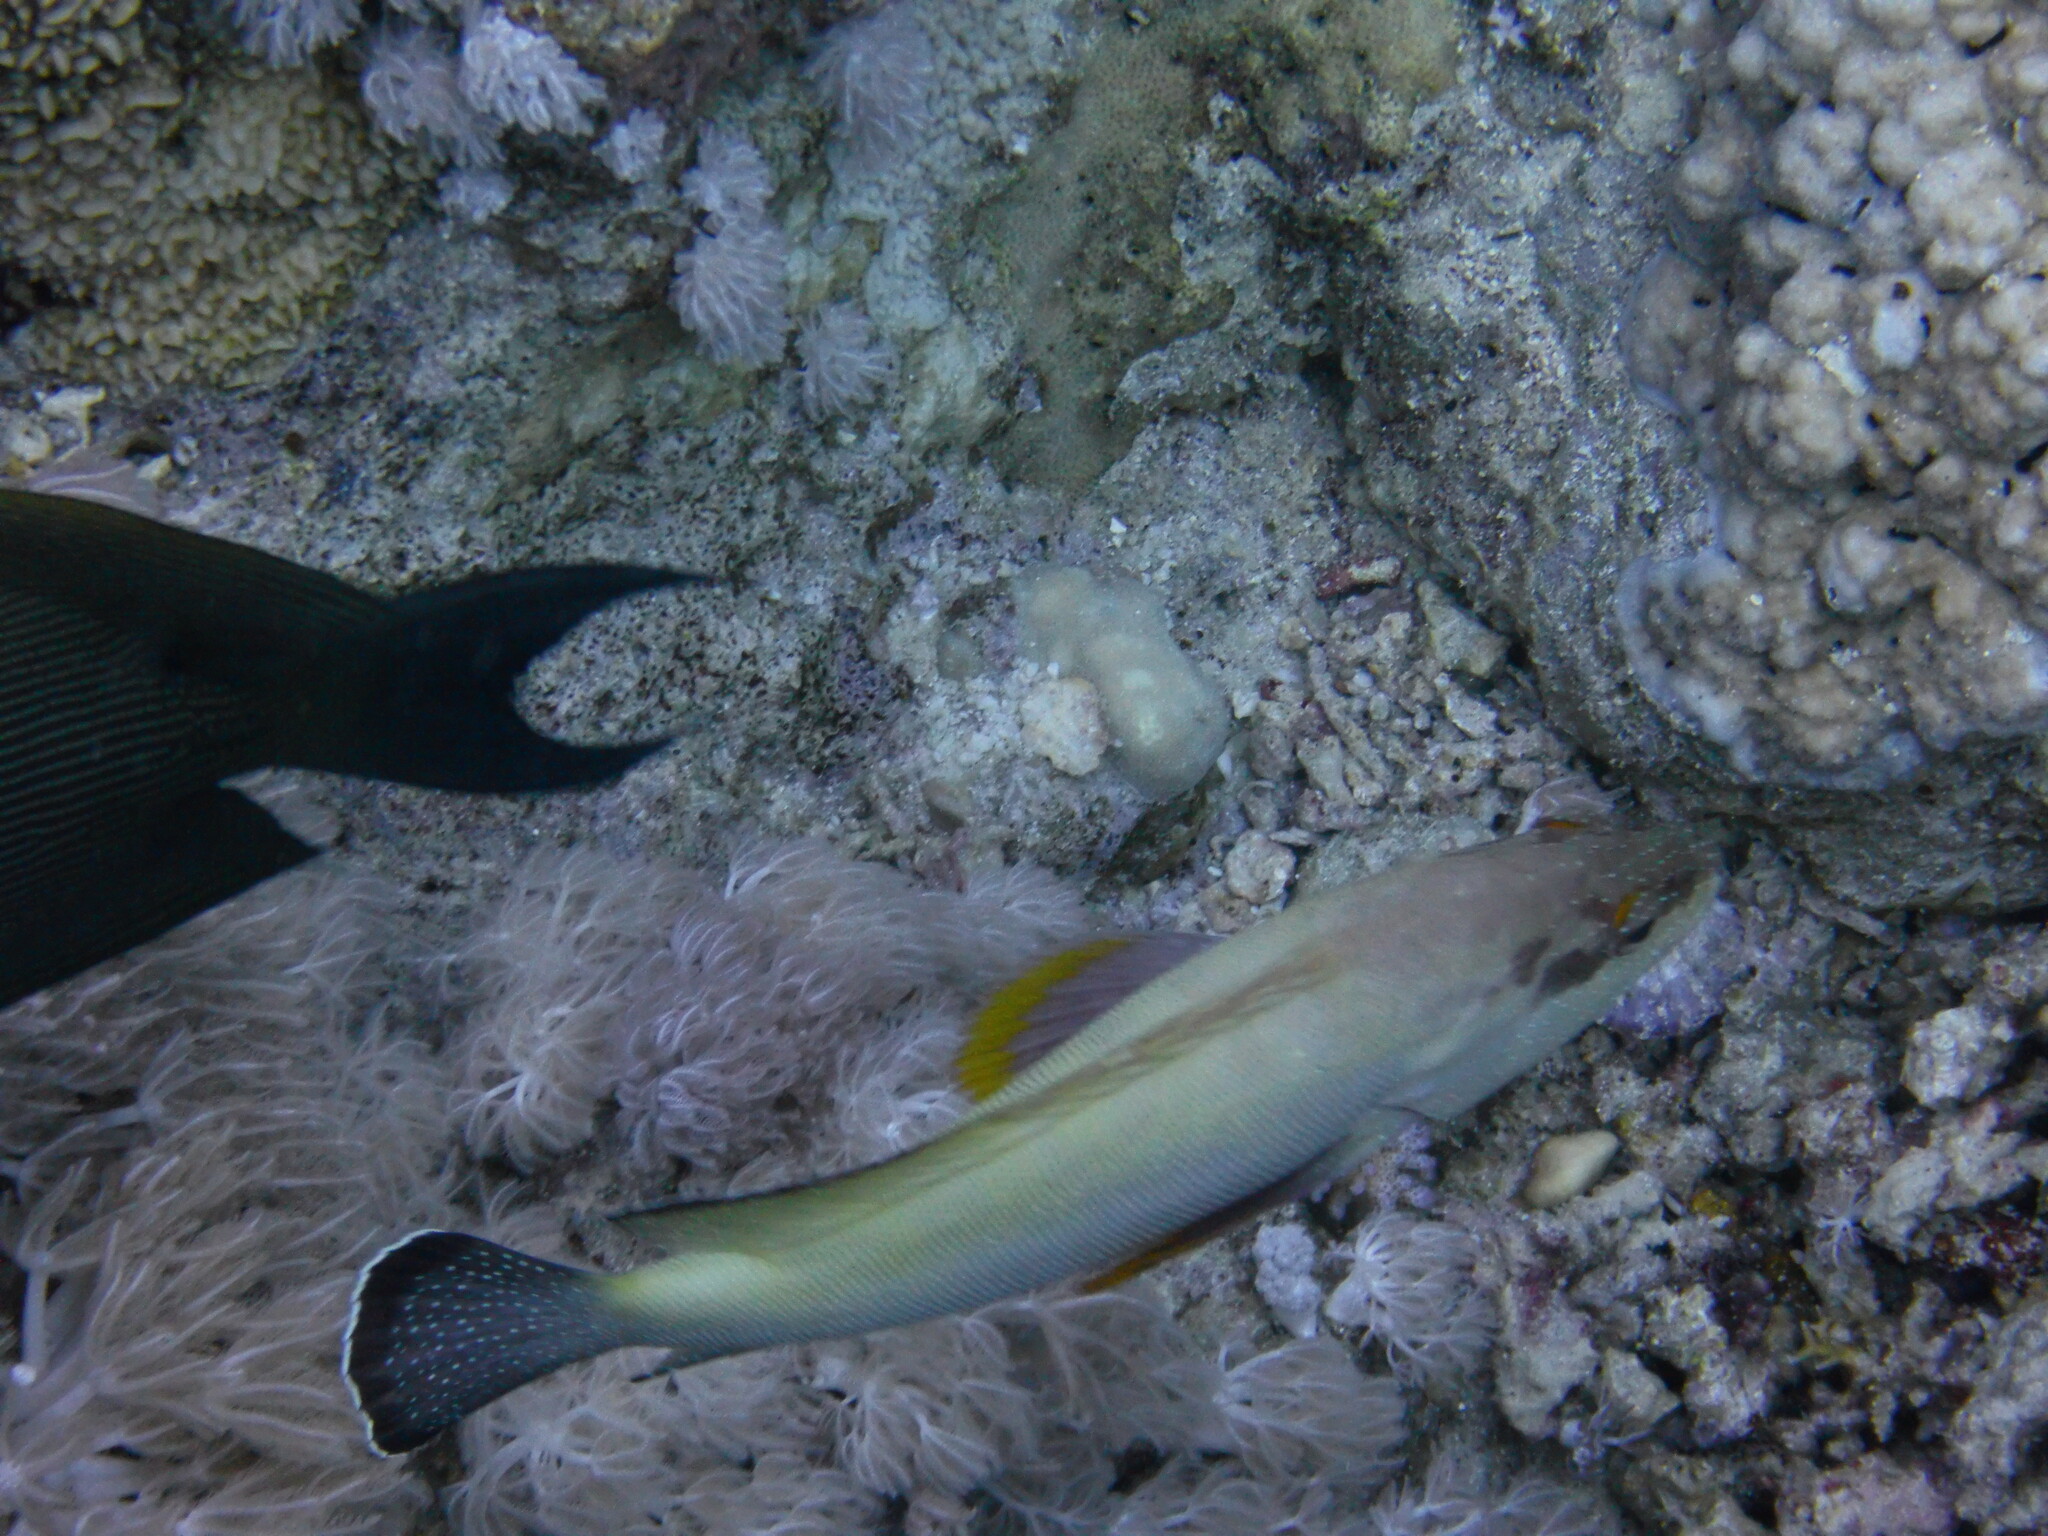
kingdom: Animalia
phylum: Chordata
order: Perciformes
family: Serranidae
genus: Cephalopholis
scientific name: Cephalopholis hemistiktos
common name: Halfspotted hind
